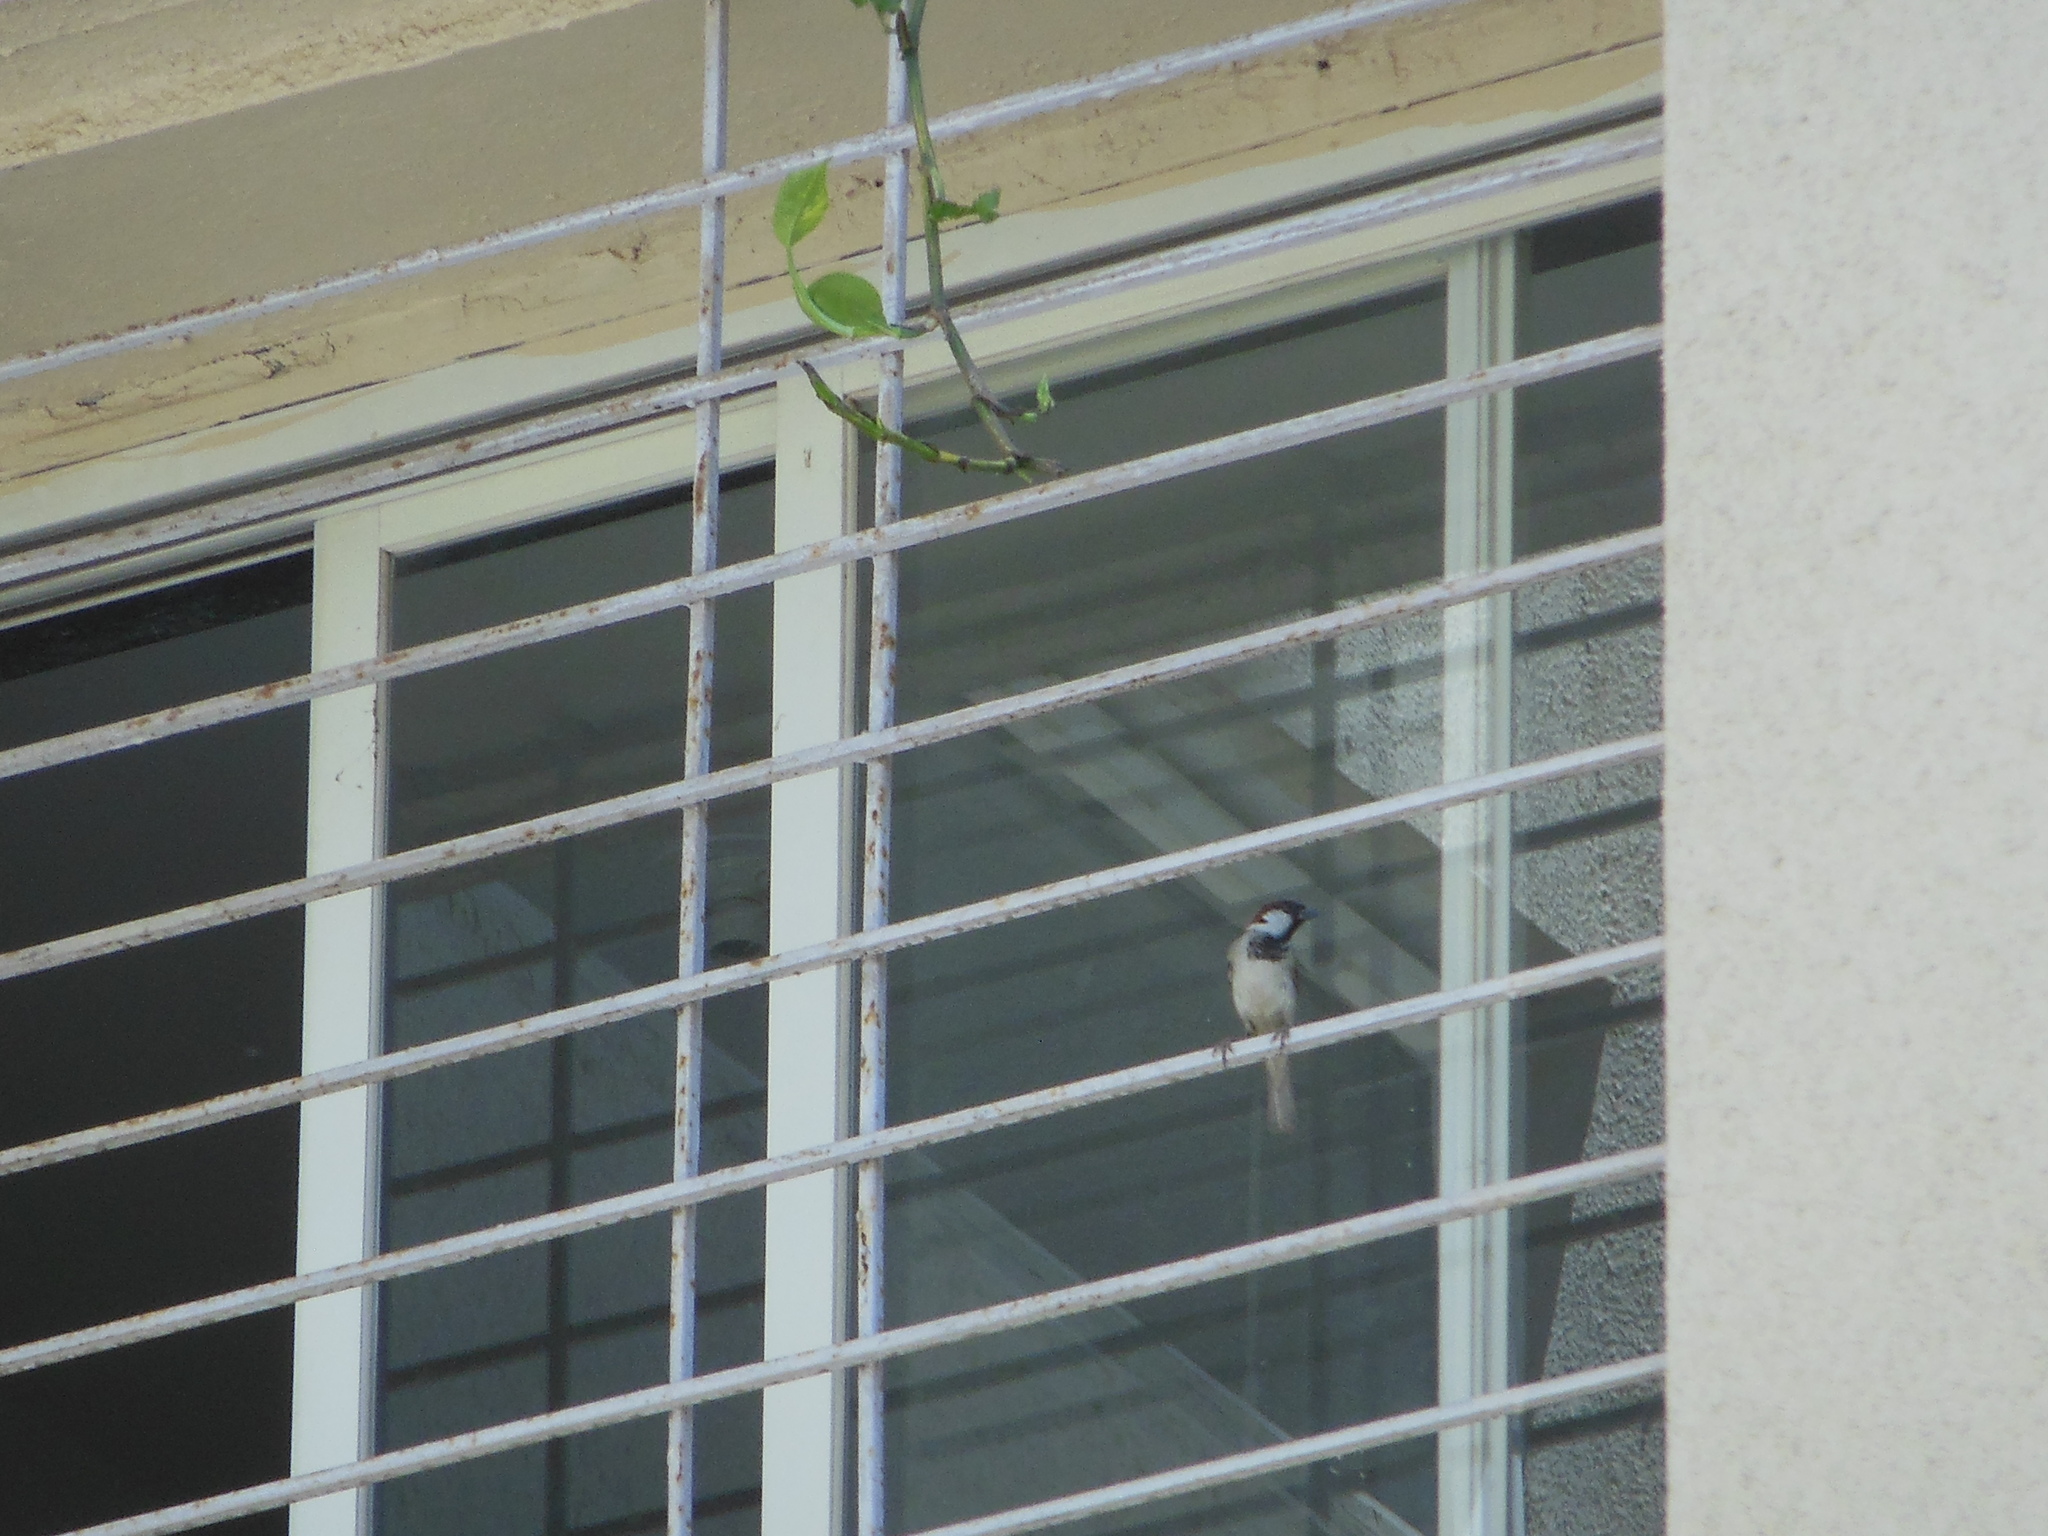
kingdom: Animalia
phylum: Chordata
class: Aves
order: Passeriformes
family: Passeridae
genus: Passer
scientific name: Passer domesticus
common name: House sparrow
